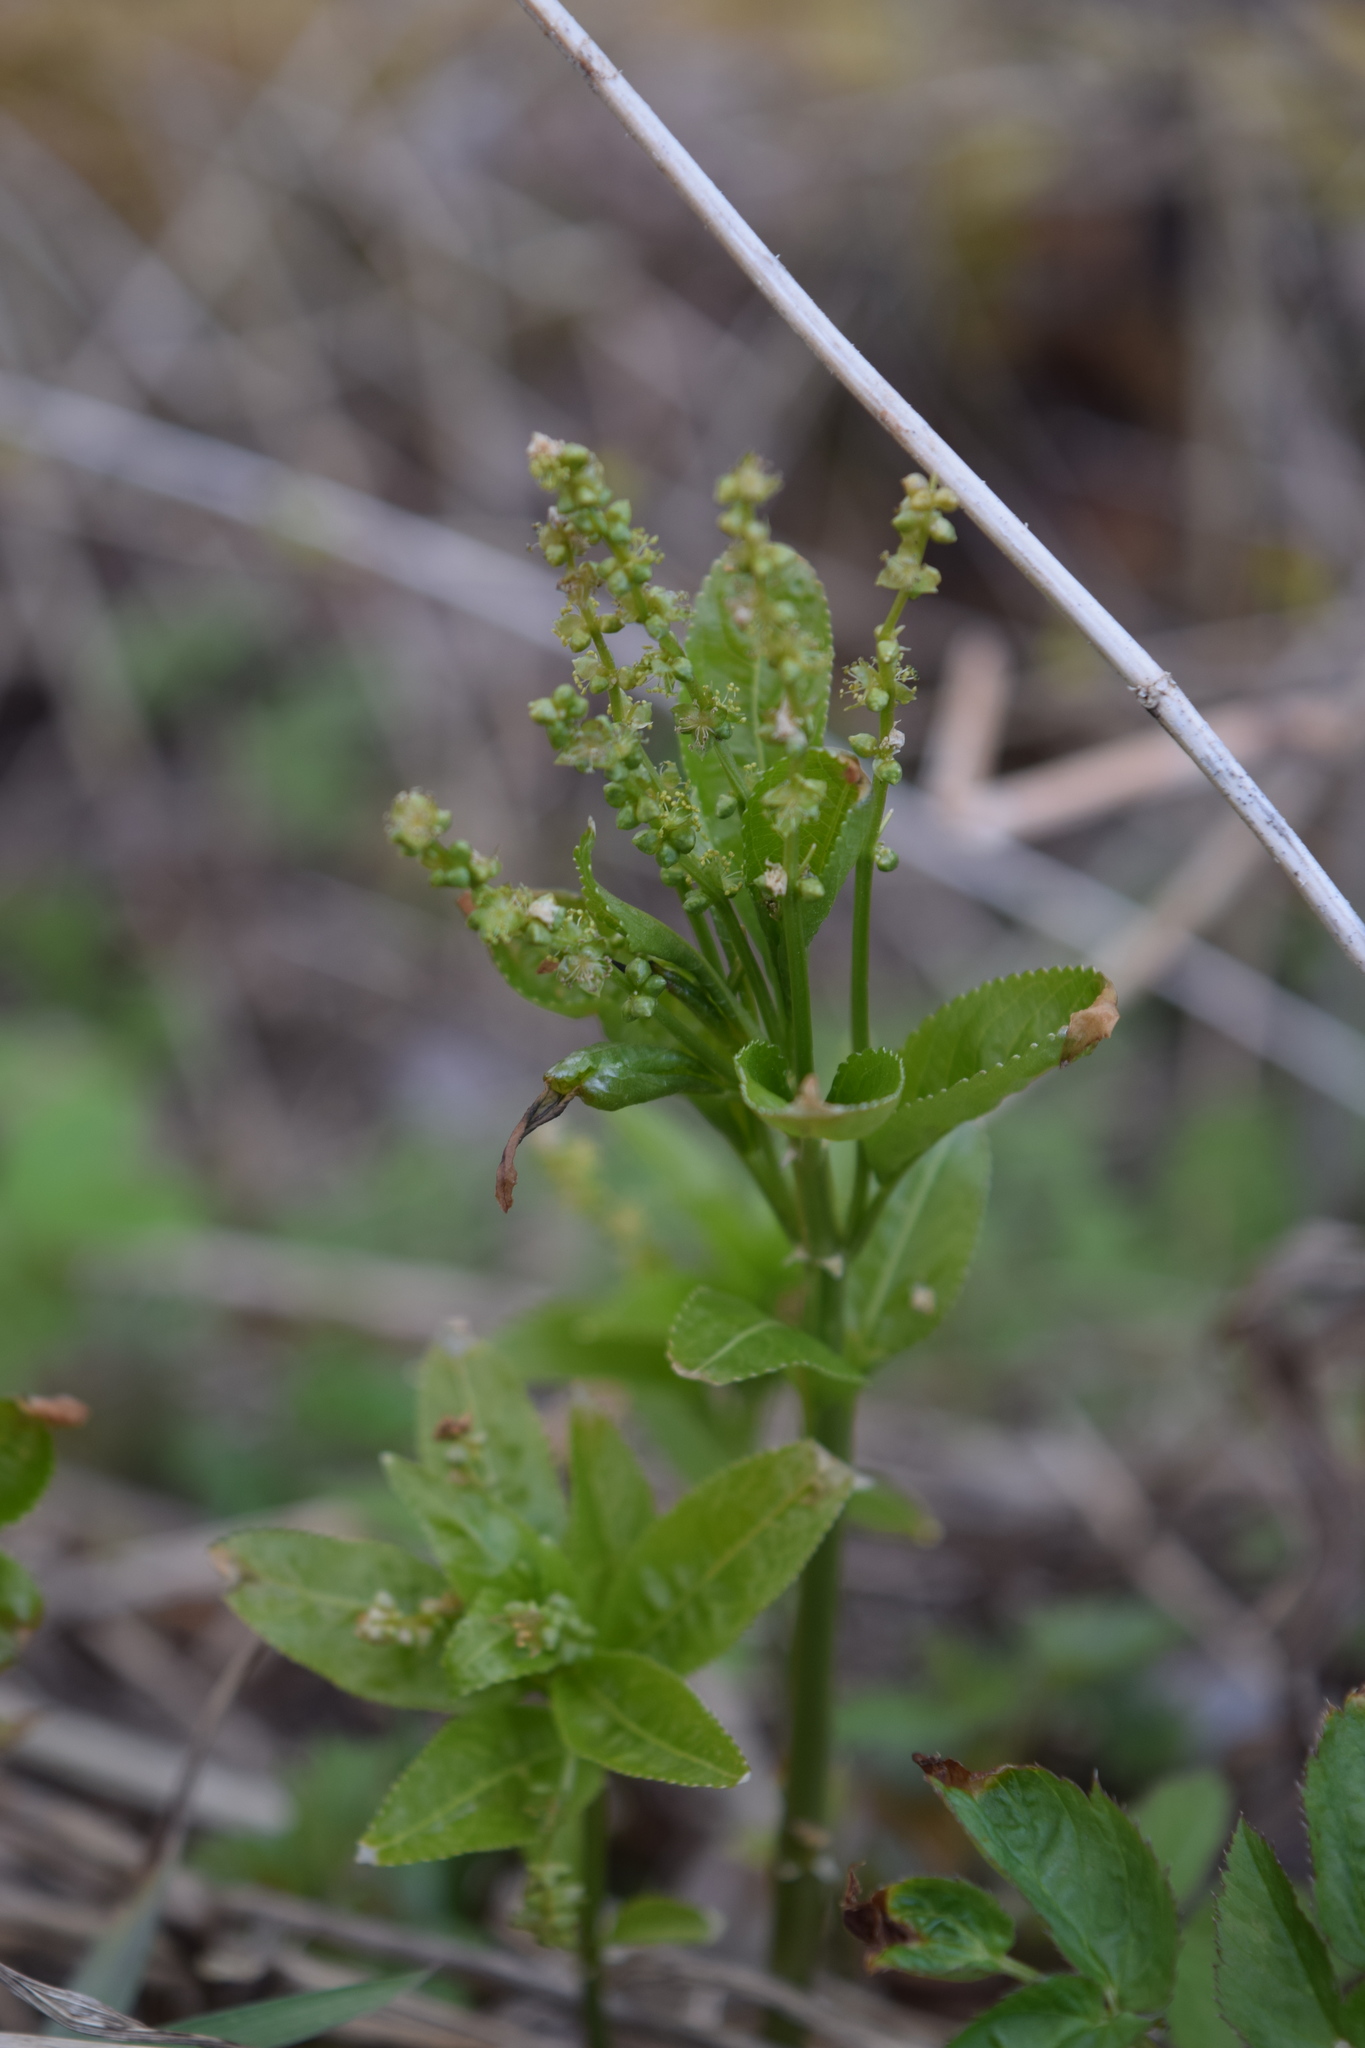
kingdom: Plantae
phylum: Tracheophyta
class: Magnoliopsida
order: Malpighiales
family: Euphorbiaceae
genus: Mercurialis
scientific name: Mercurialis perennis
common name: Dog mercury
